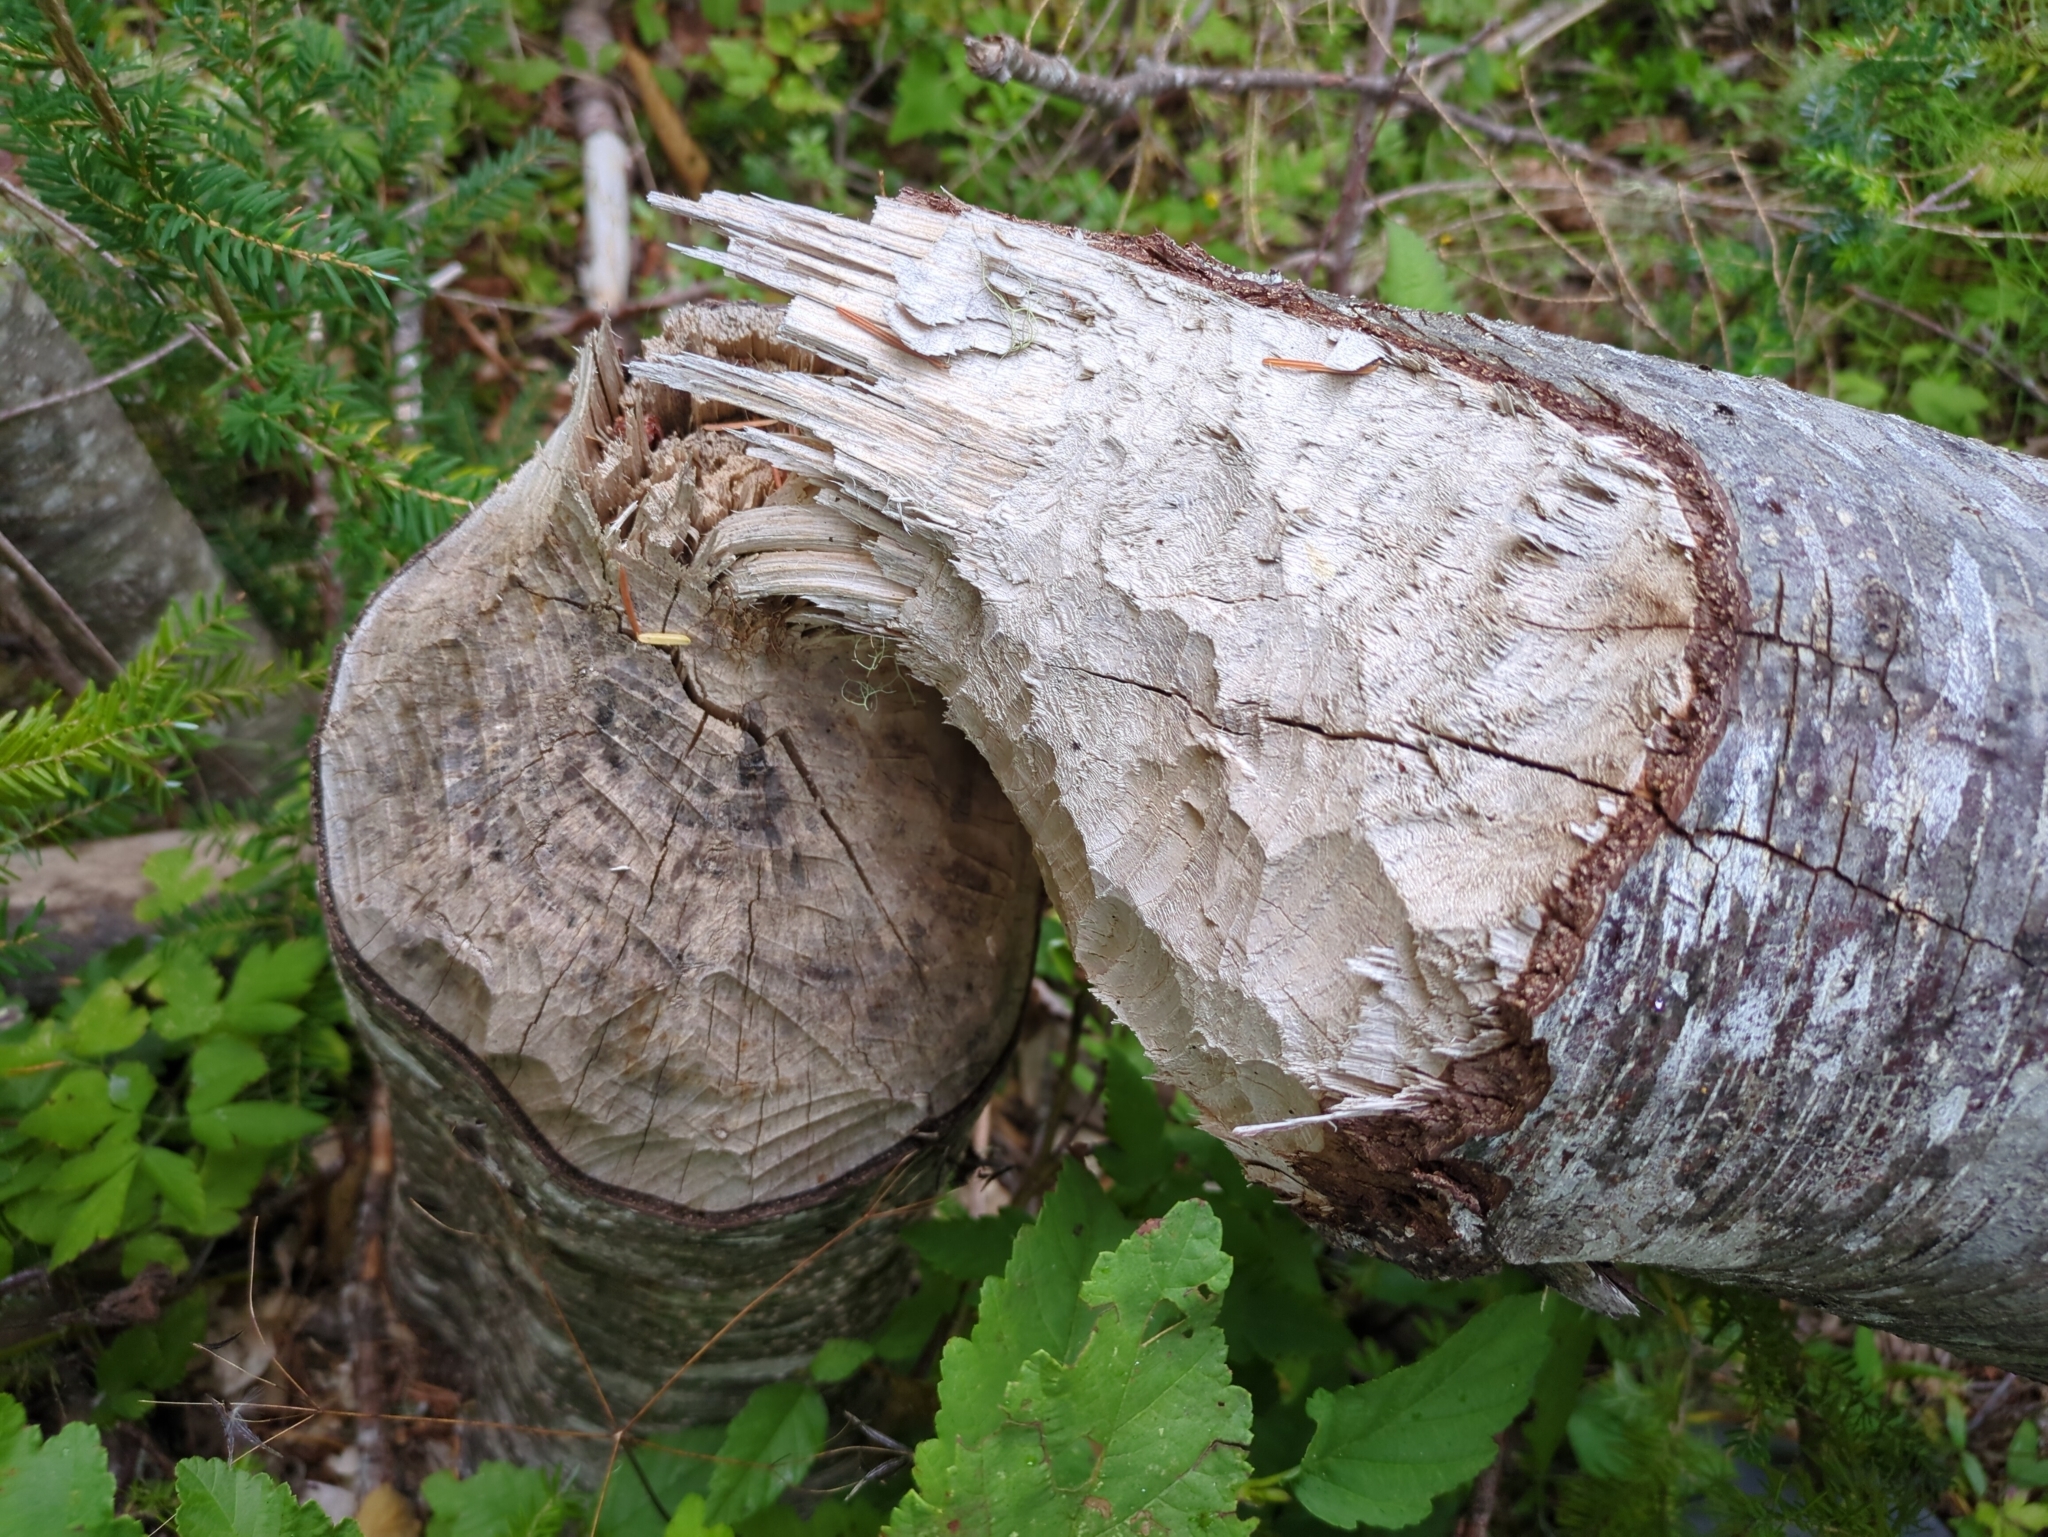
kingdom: Animalia
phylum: Chordata
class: Mammalia
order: Rodentia
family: Castoridae
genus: Castor
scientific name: Castor canadensis
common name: American beaver
